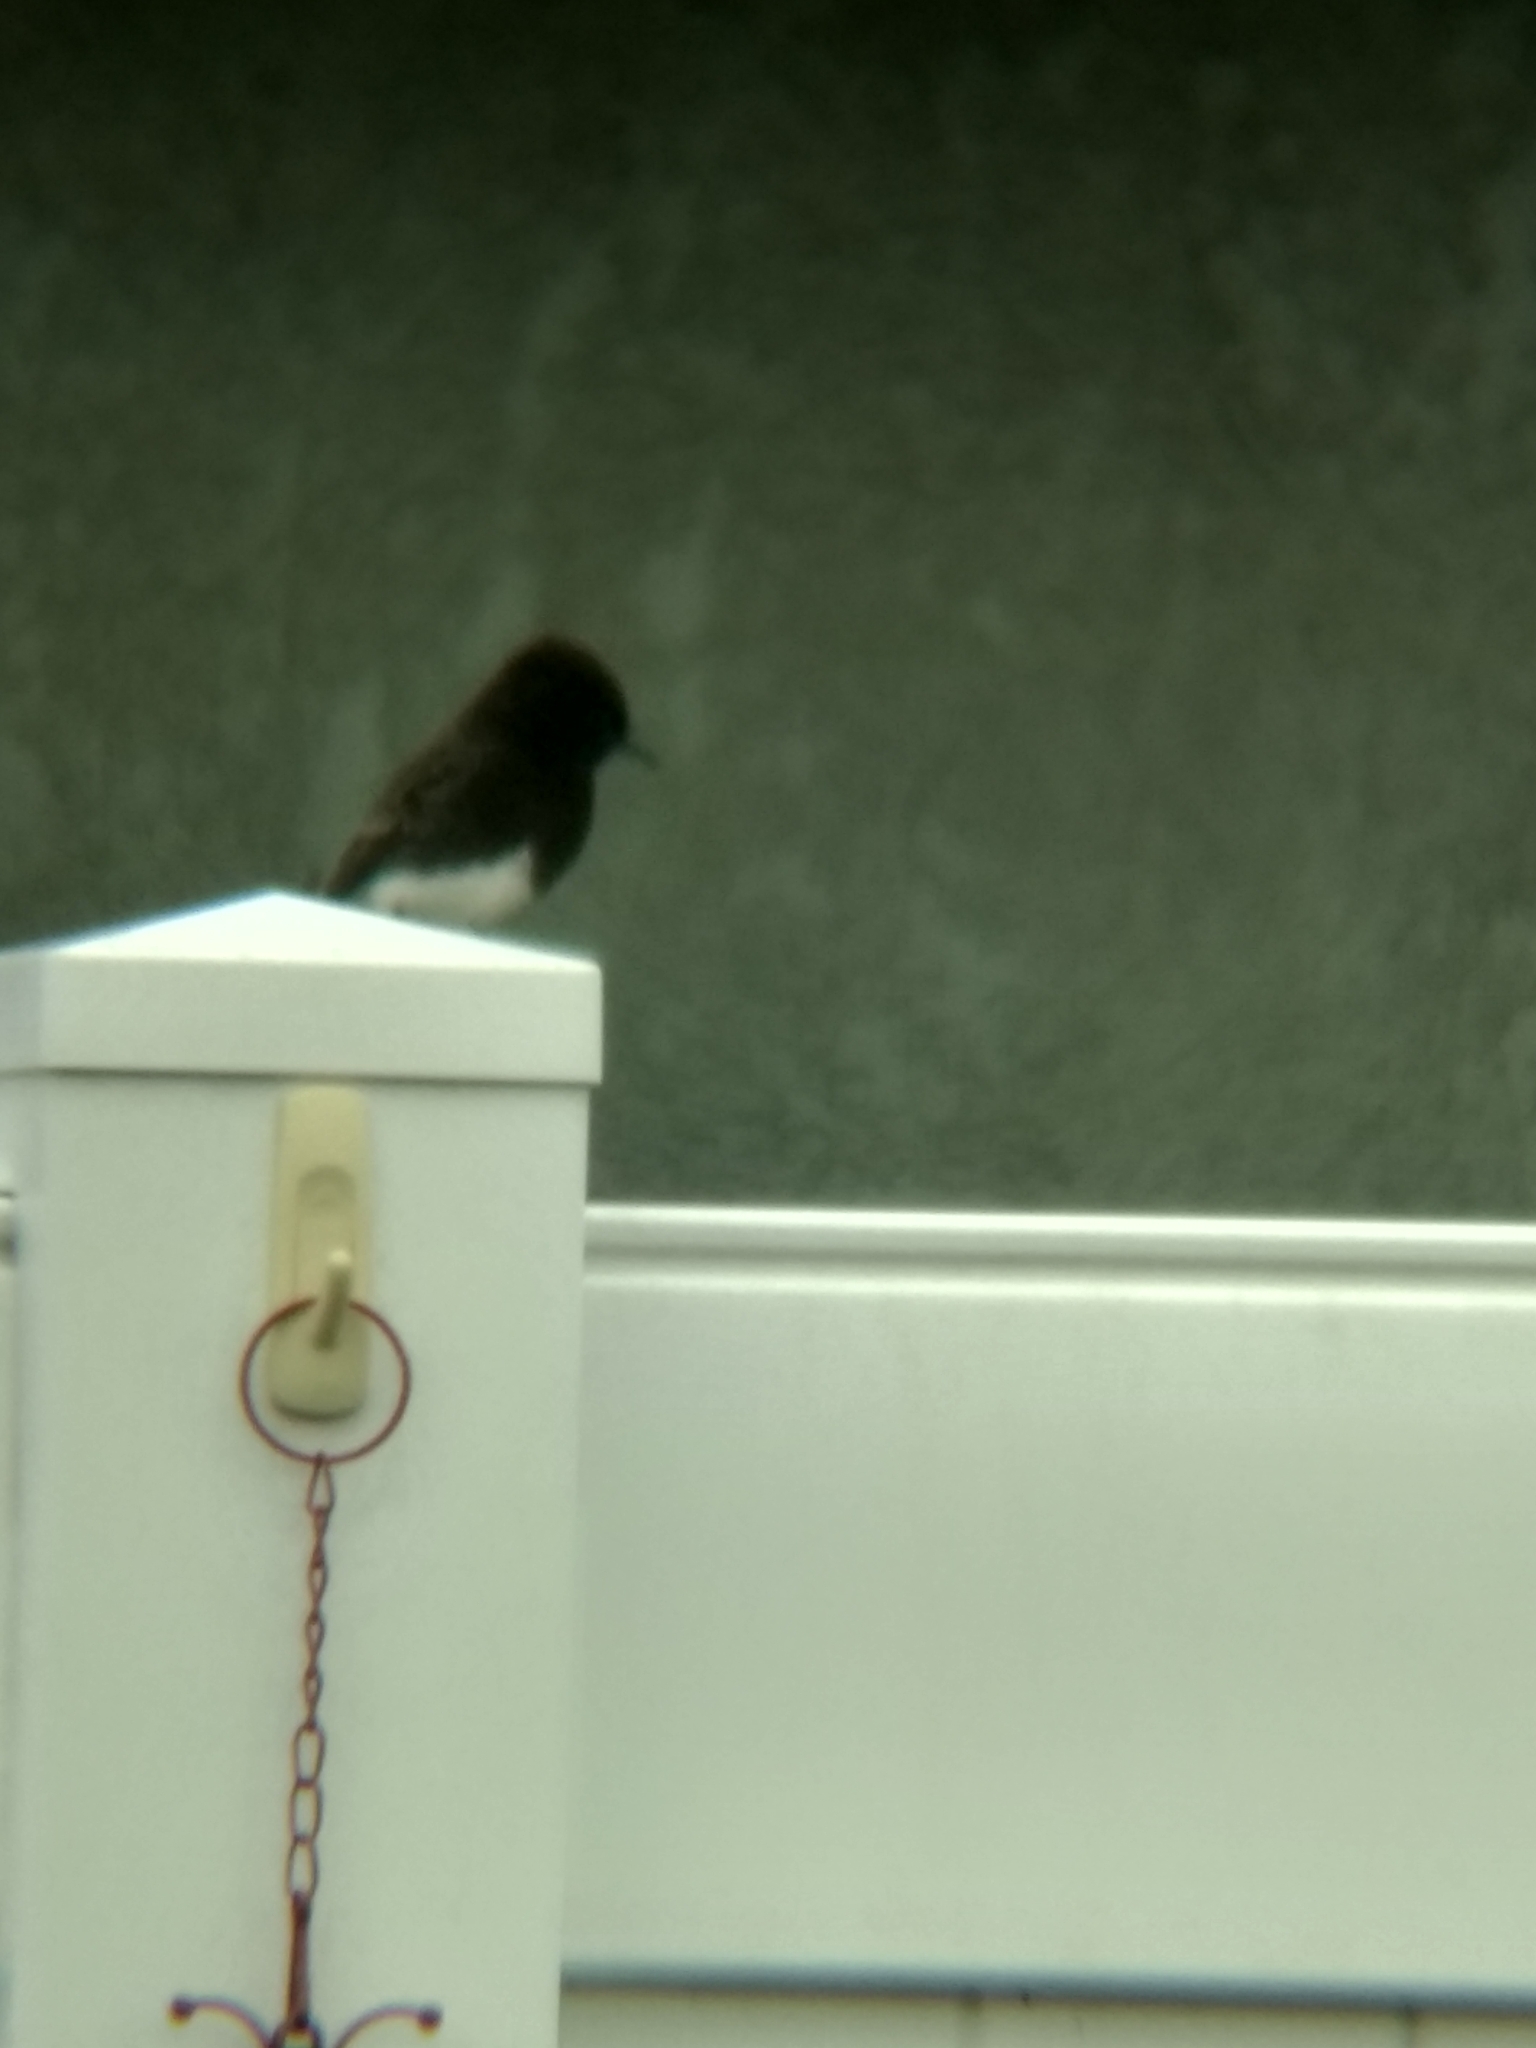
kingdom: Animalia
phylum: Chordata
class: Aves
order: Passeriformes
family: Tyrannidae
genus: Sayornis
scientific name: Sayornis nigricans
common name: Black phoebe
